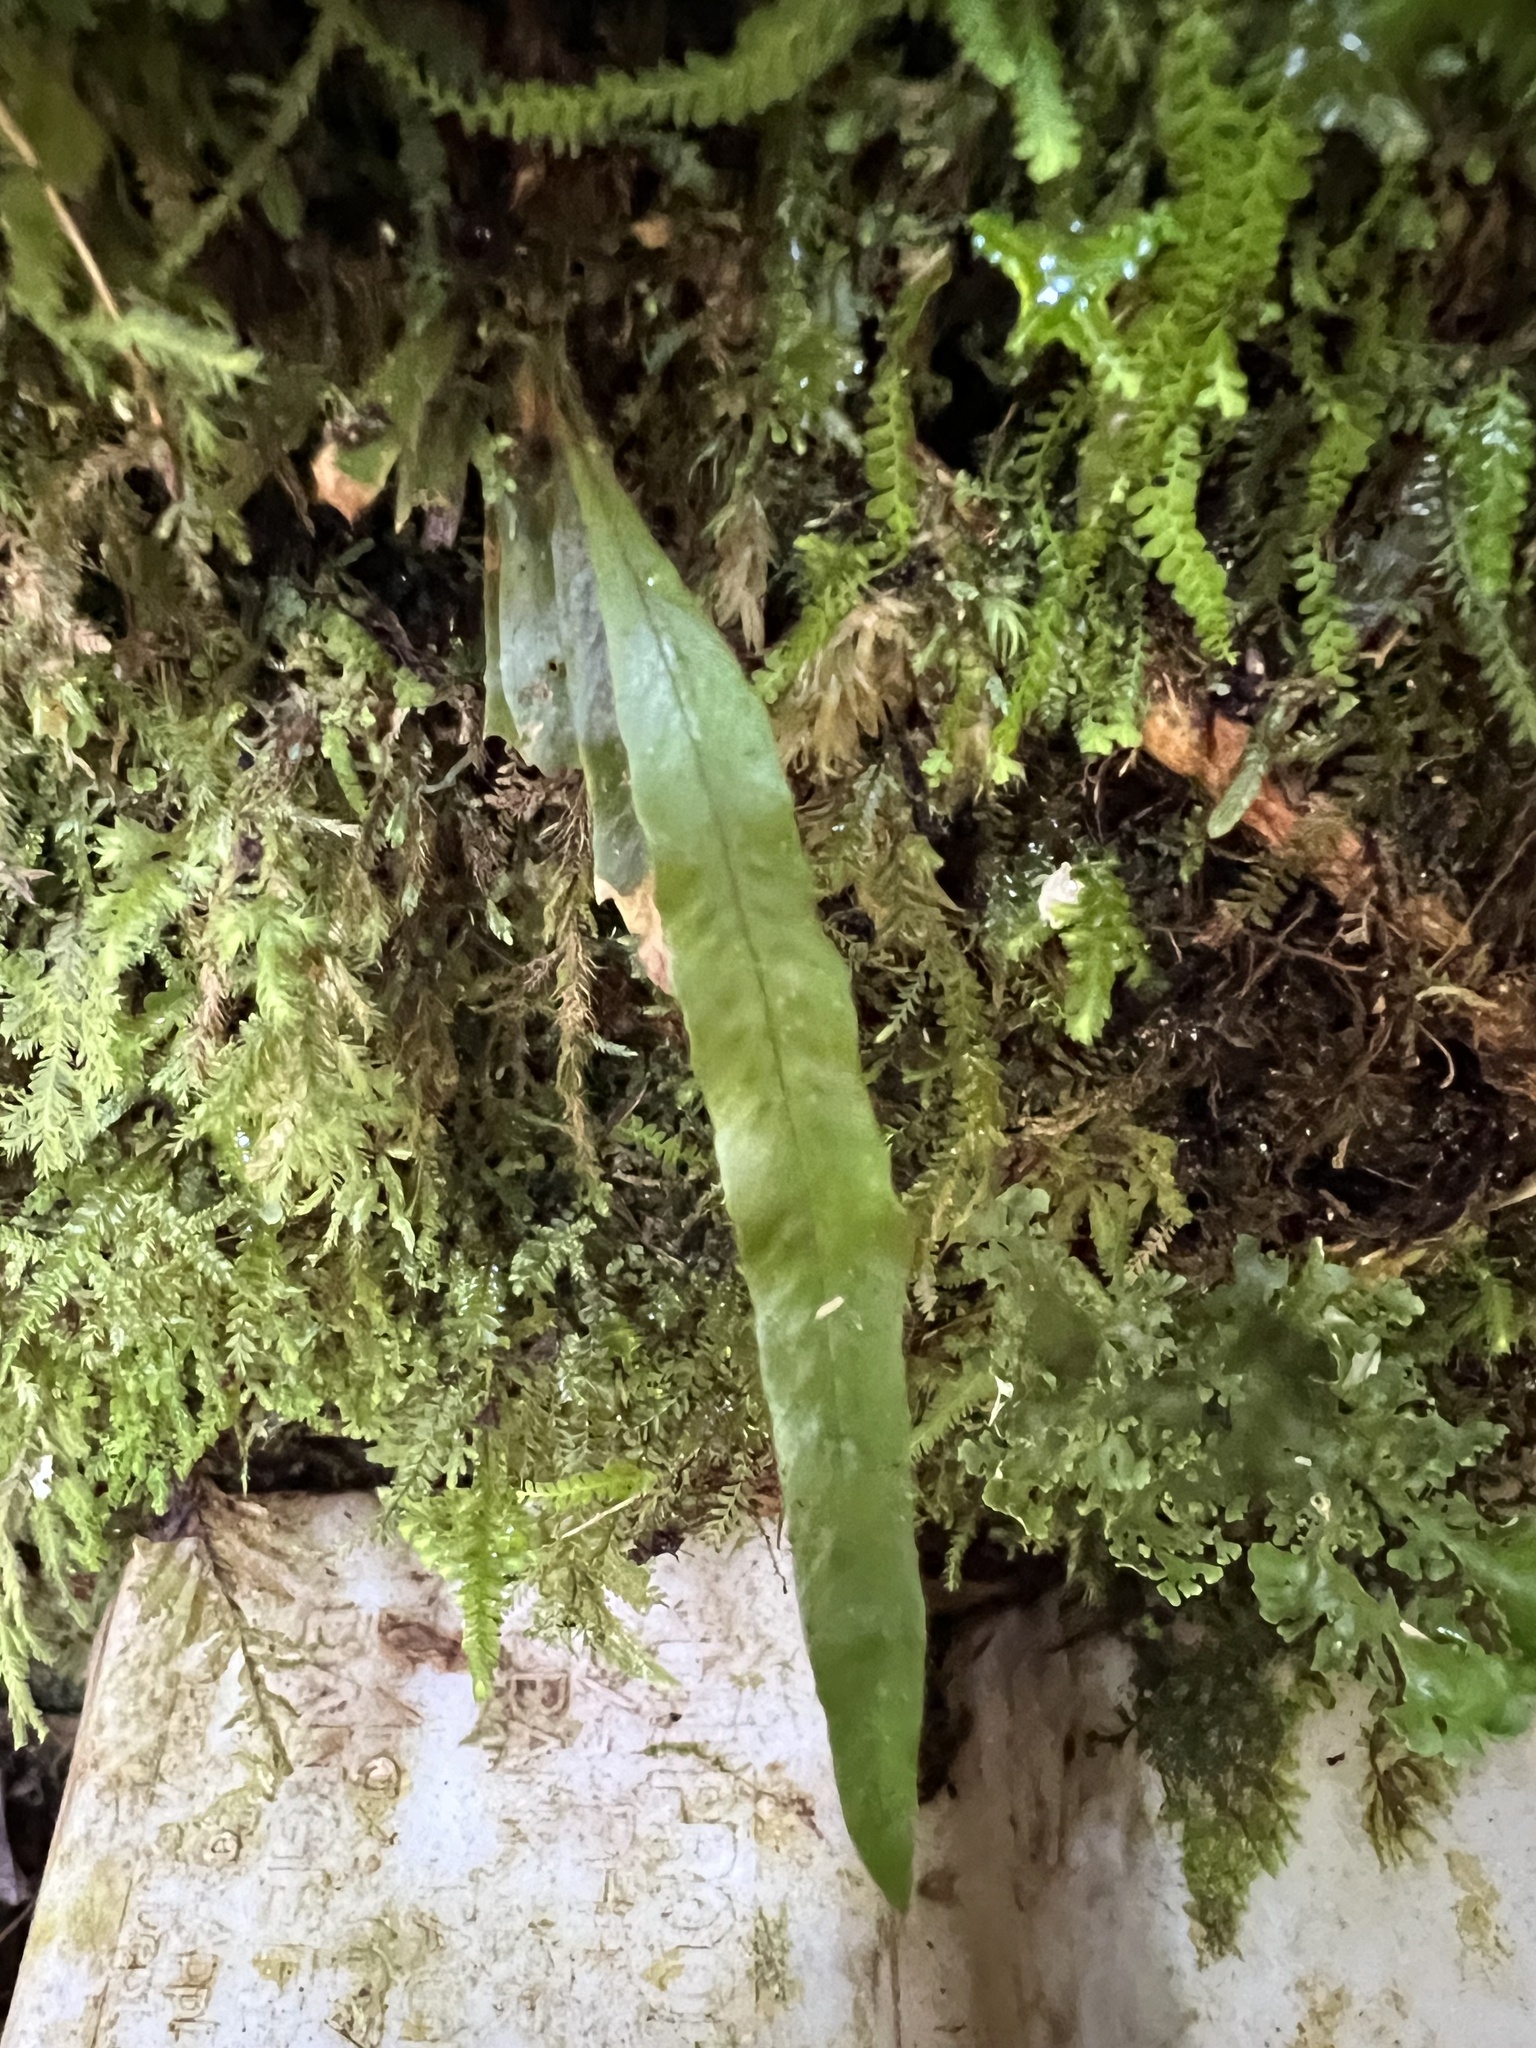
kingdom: Plantae
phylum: Tracheophyta
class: Polypodiopsida
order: Polypodiales
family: Polypodiaceae
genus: Notogrammitis
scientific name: Notogrammitis pseudociliata
